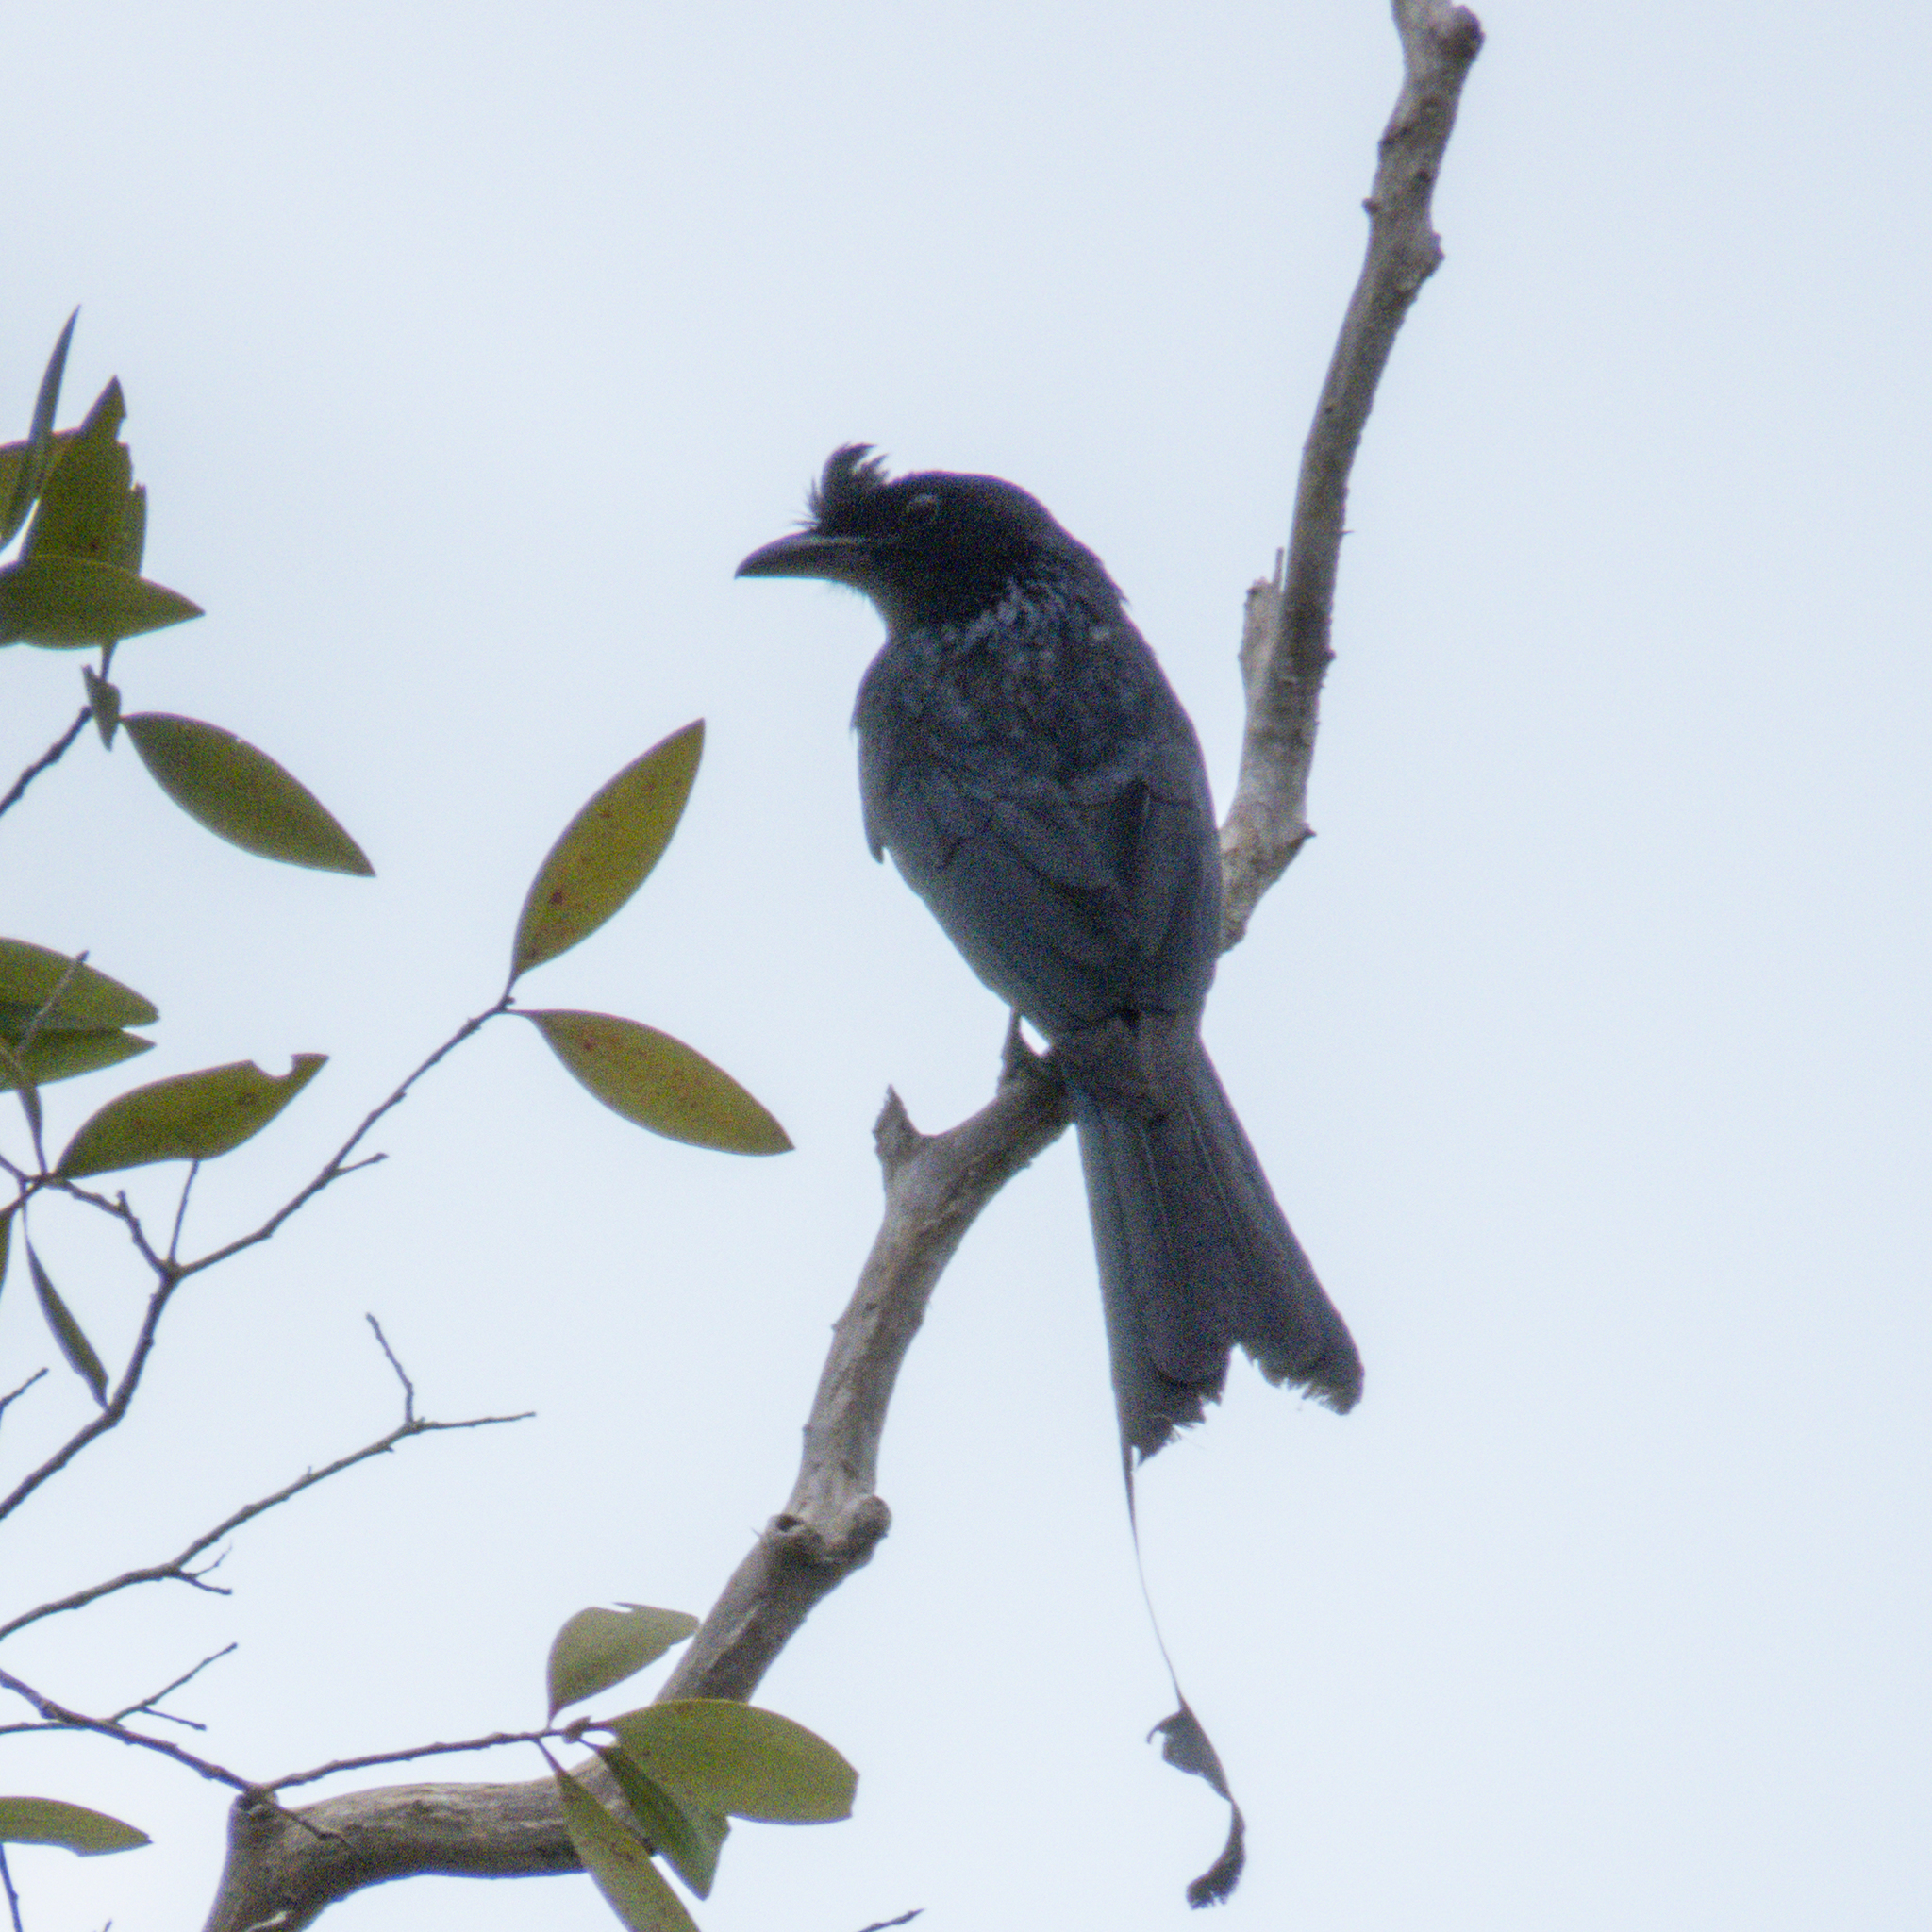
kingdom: Animalia
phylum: Chordata
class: Aves
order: Passeriformes
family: Dicruridae
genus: Dicrurus
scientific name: Dicrurus paradiseus
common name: Greater racket-tailed drongo
